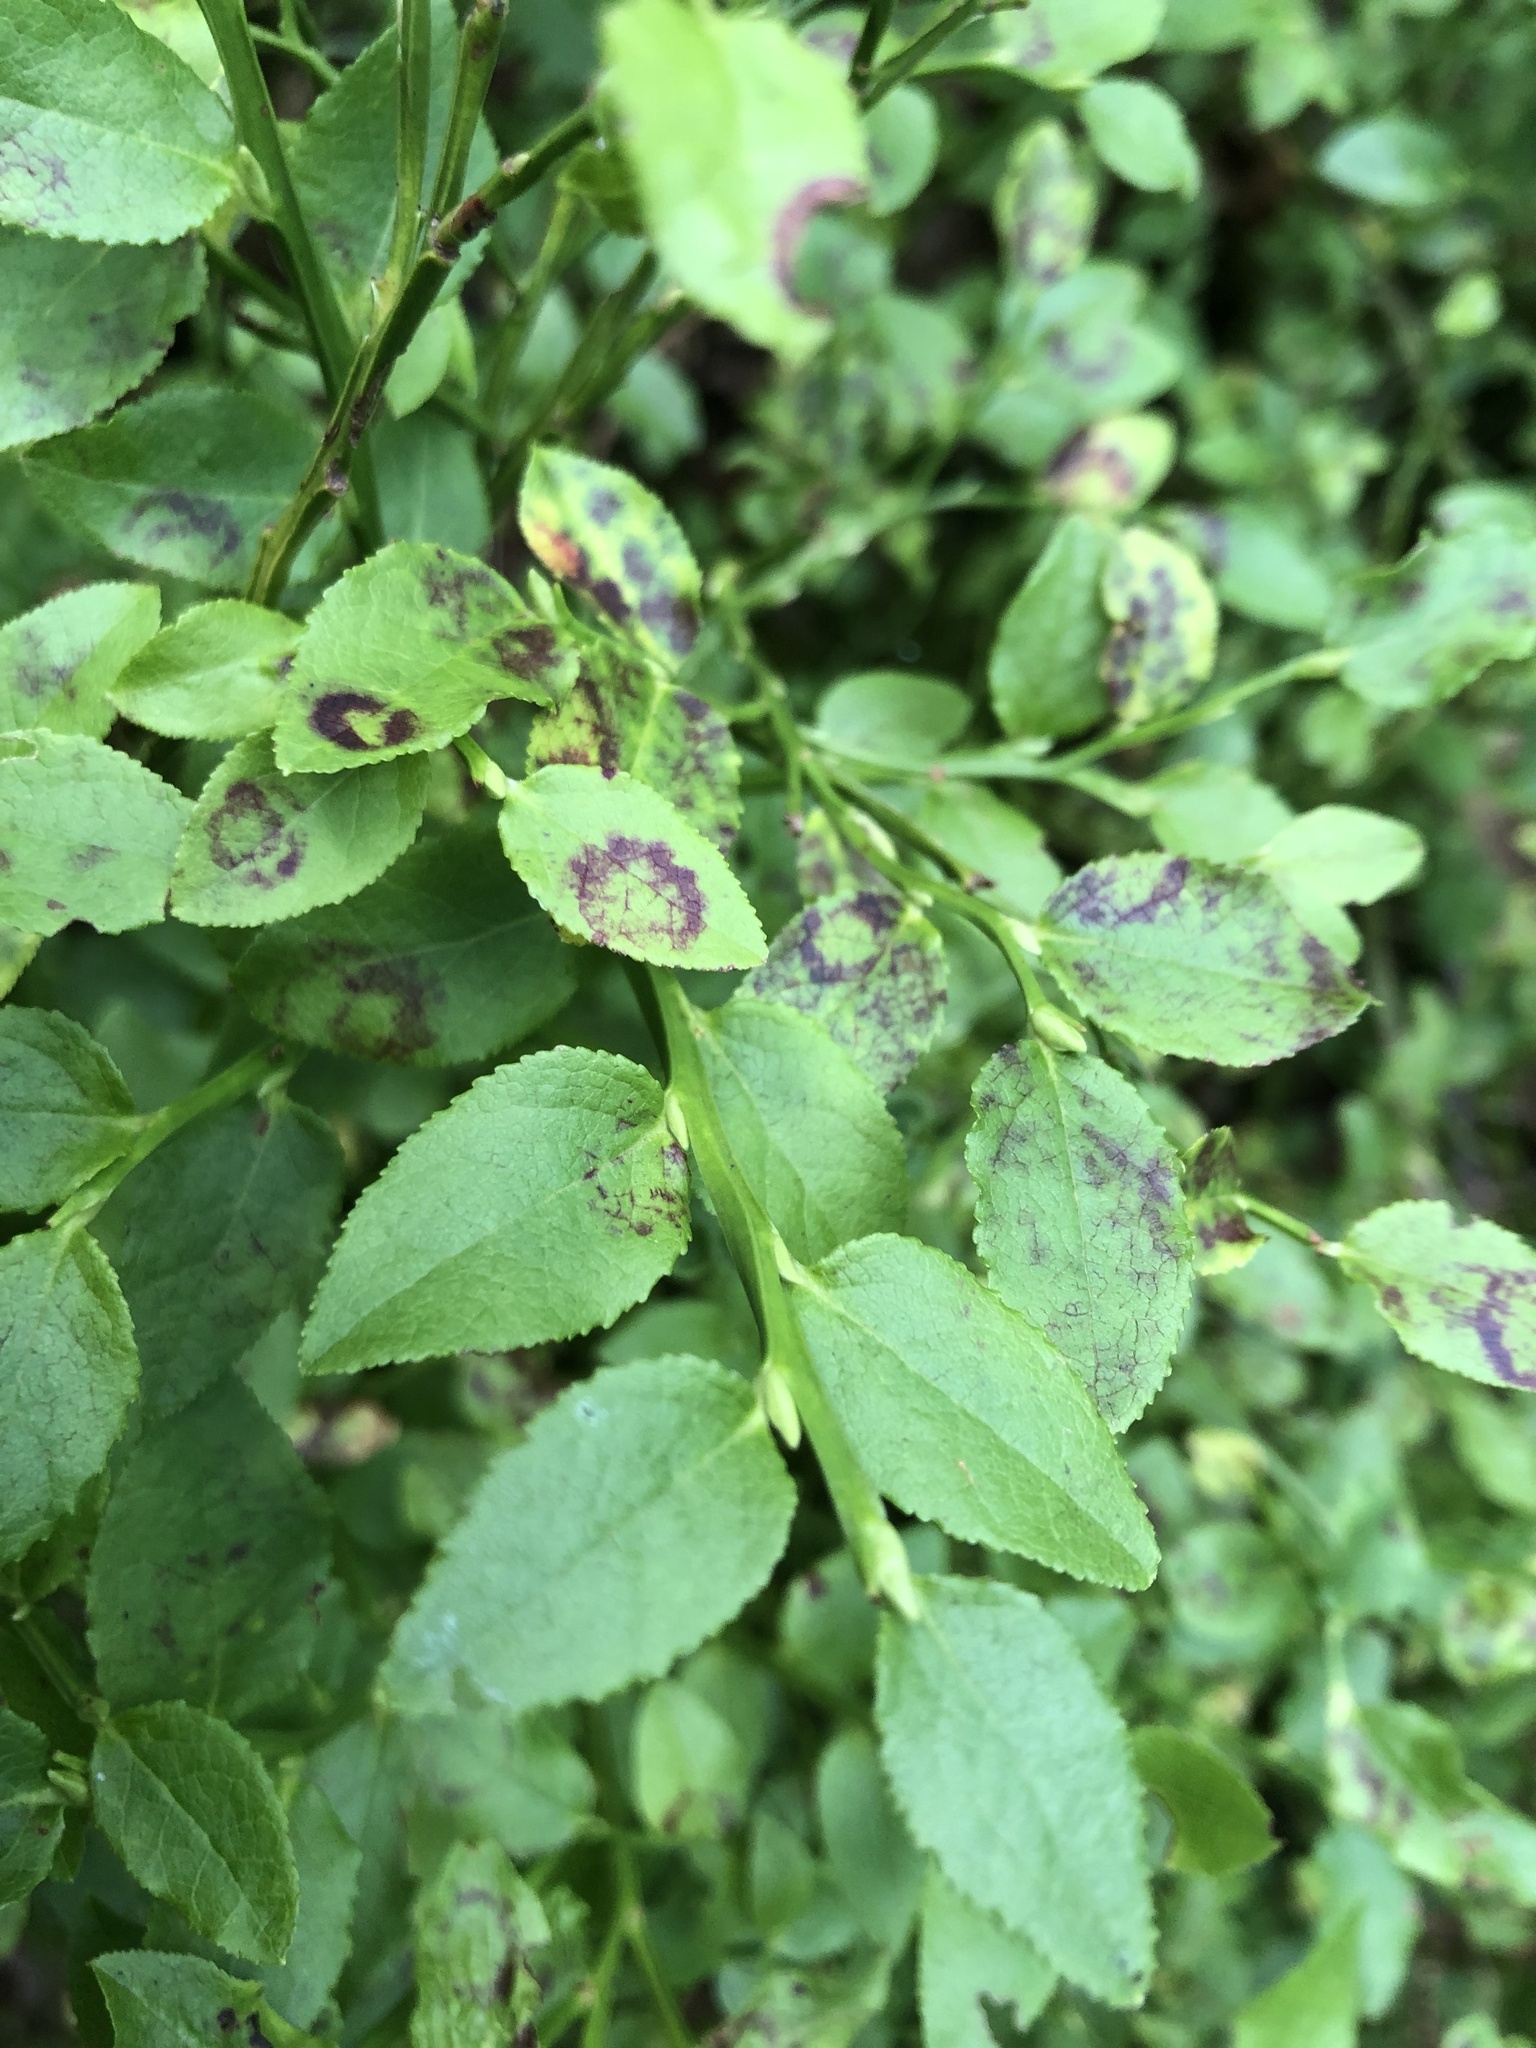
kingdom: Plantae
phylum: Tracheophyta
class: Magnoliopsida
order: Ericales
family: Ericaceae
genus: Vaccinium
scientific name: Vaccinium myrtillus
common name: Bilberry
